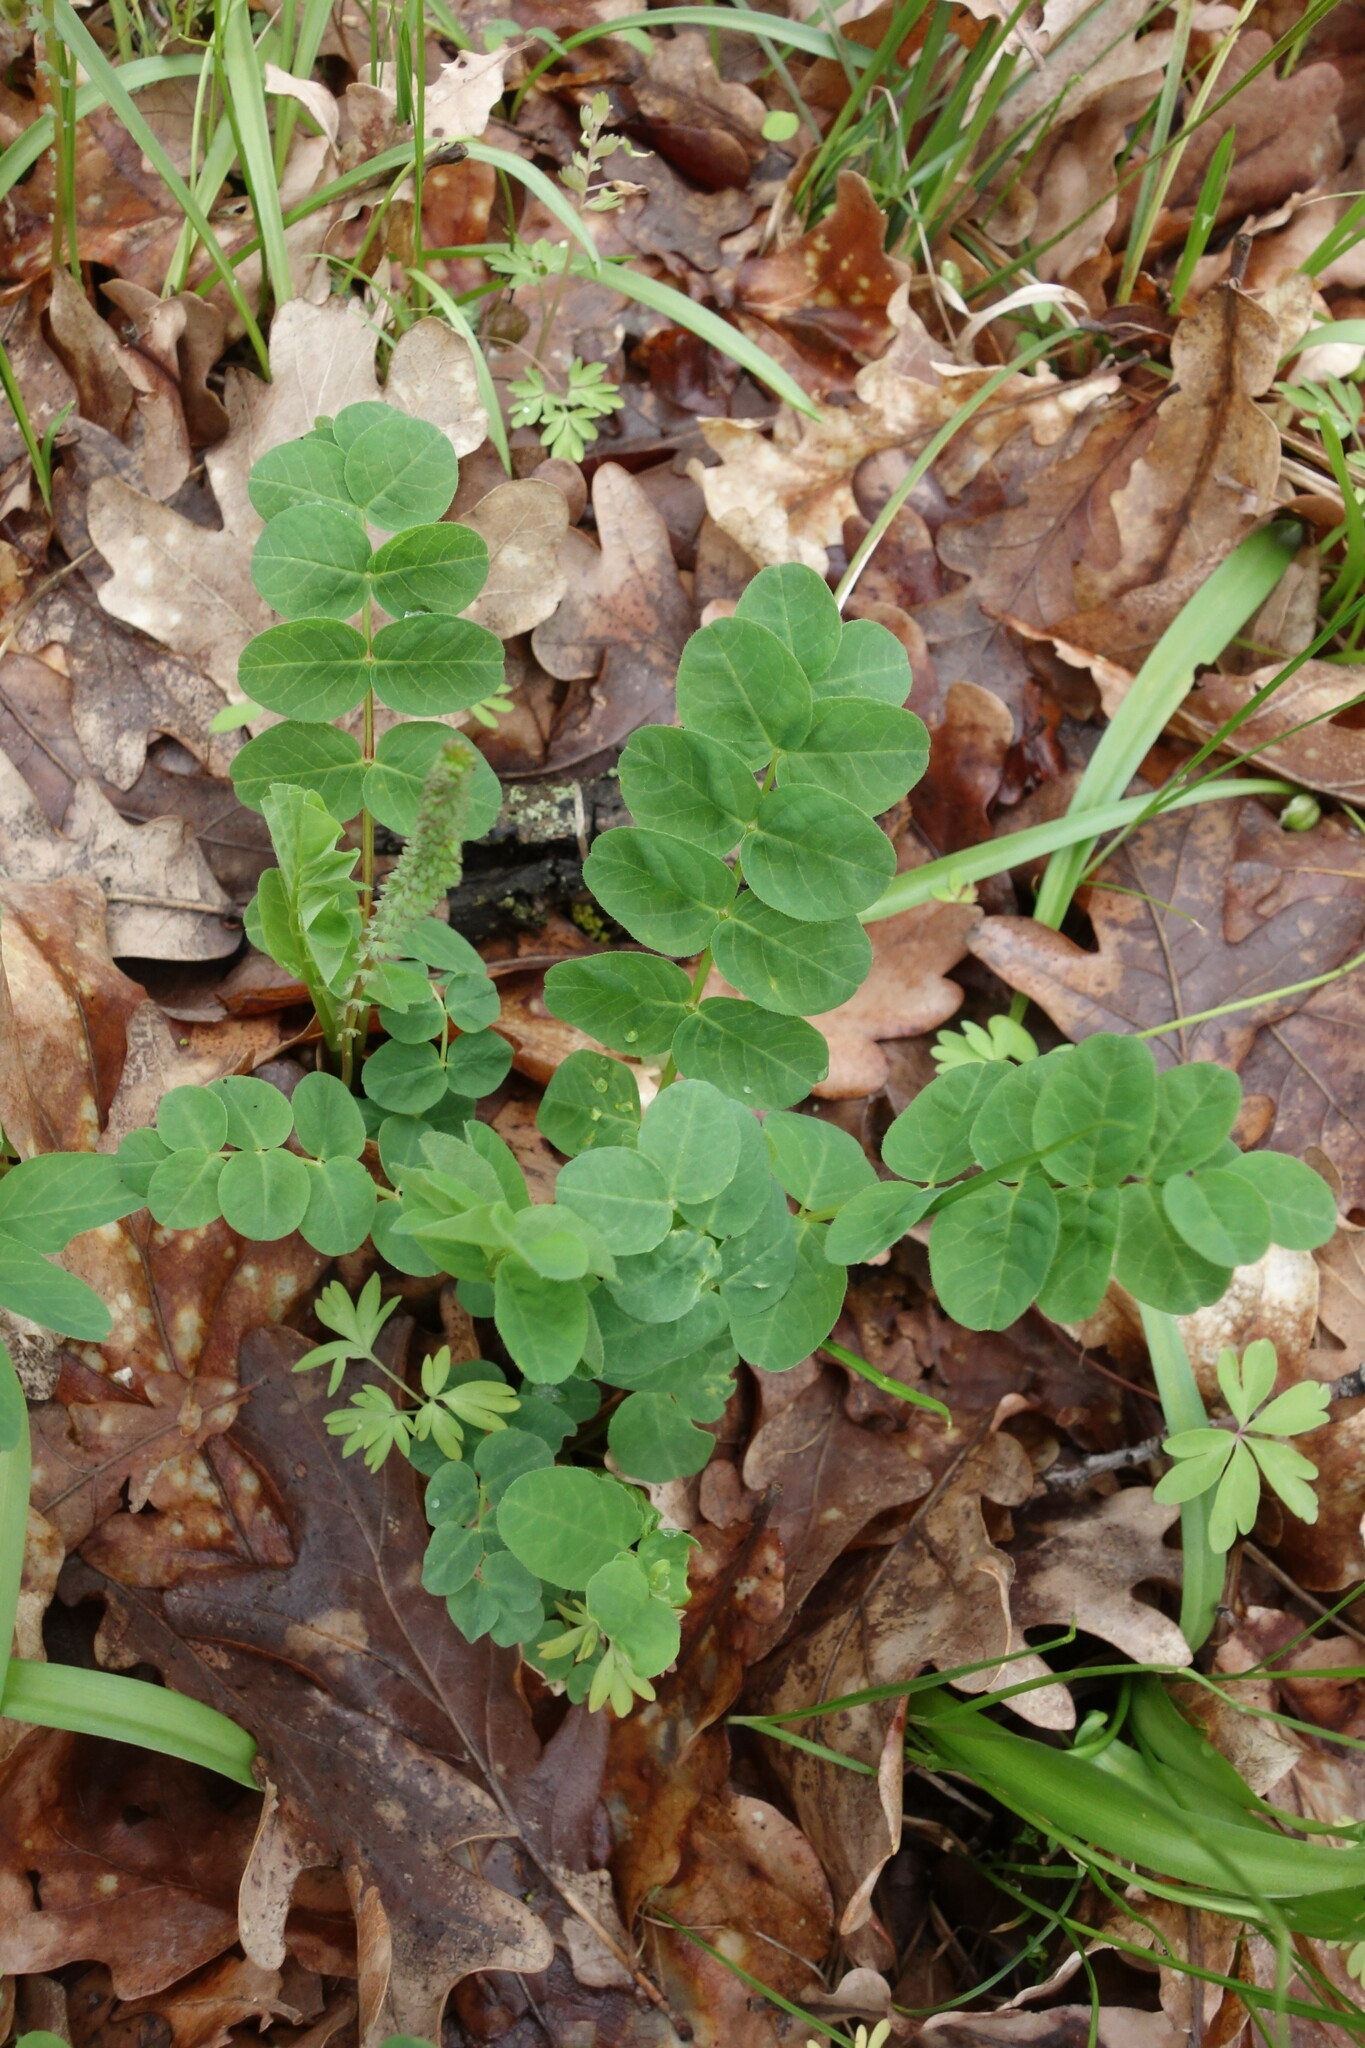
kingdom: Plantae
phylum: Tracheophyta
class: Magnoliopsida
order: Fabales
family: Fabaceae
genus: Astragalus
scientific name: Astragalus glycyphyllos
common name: Wild liquorice
